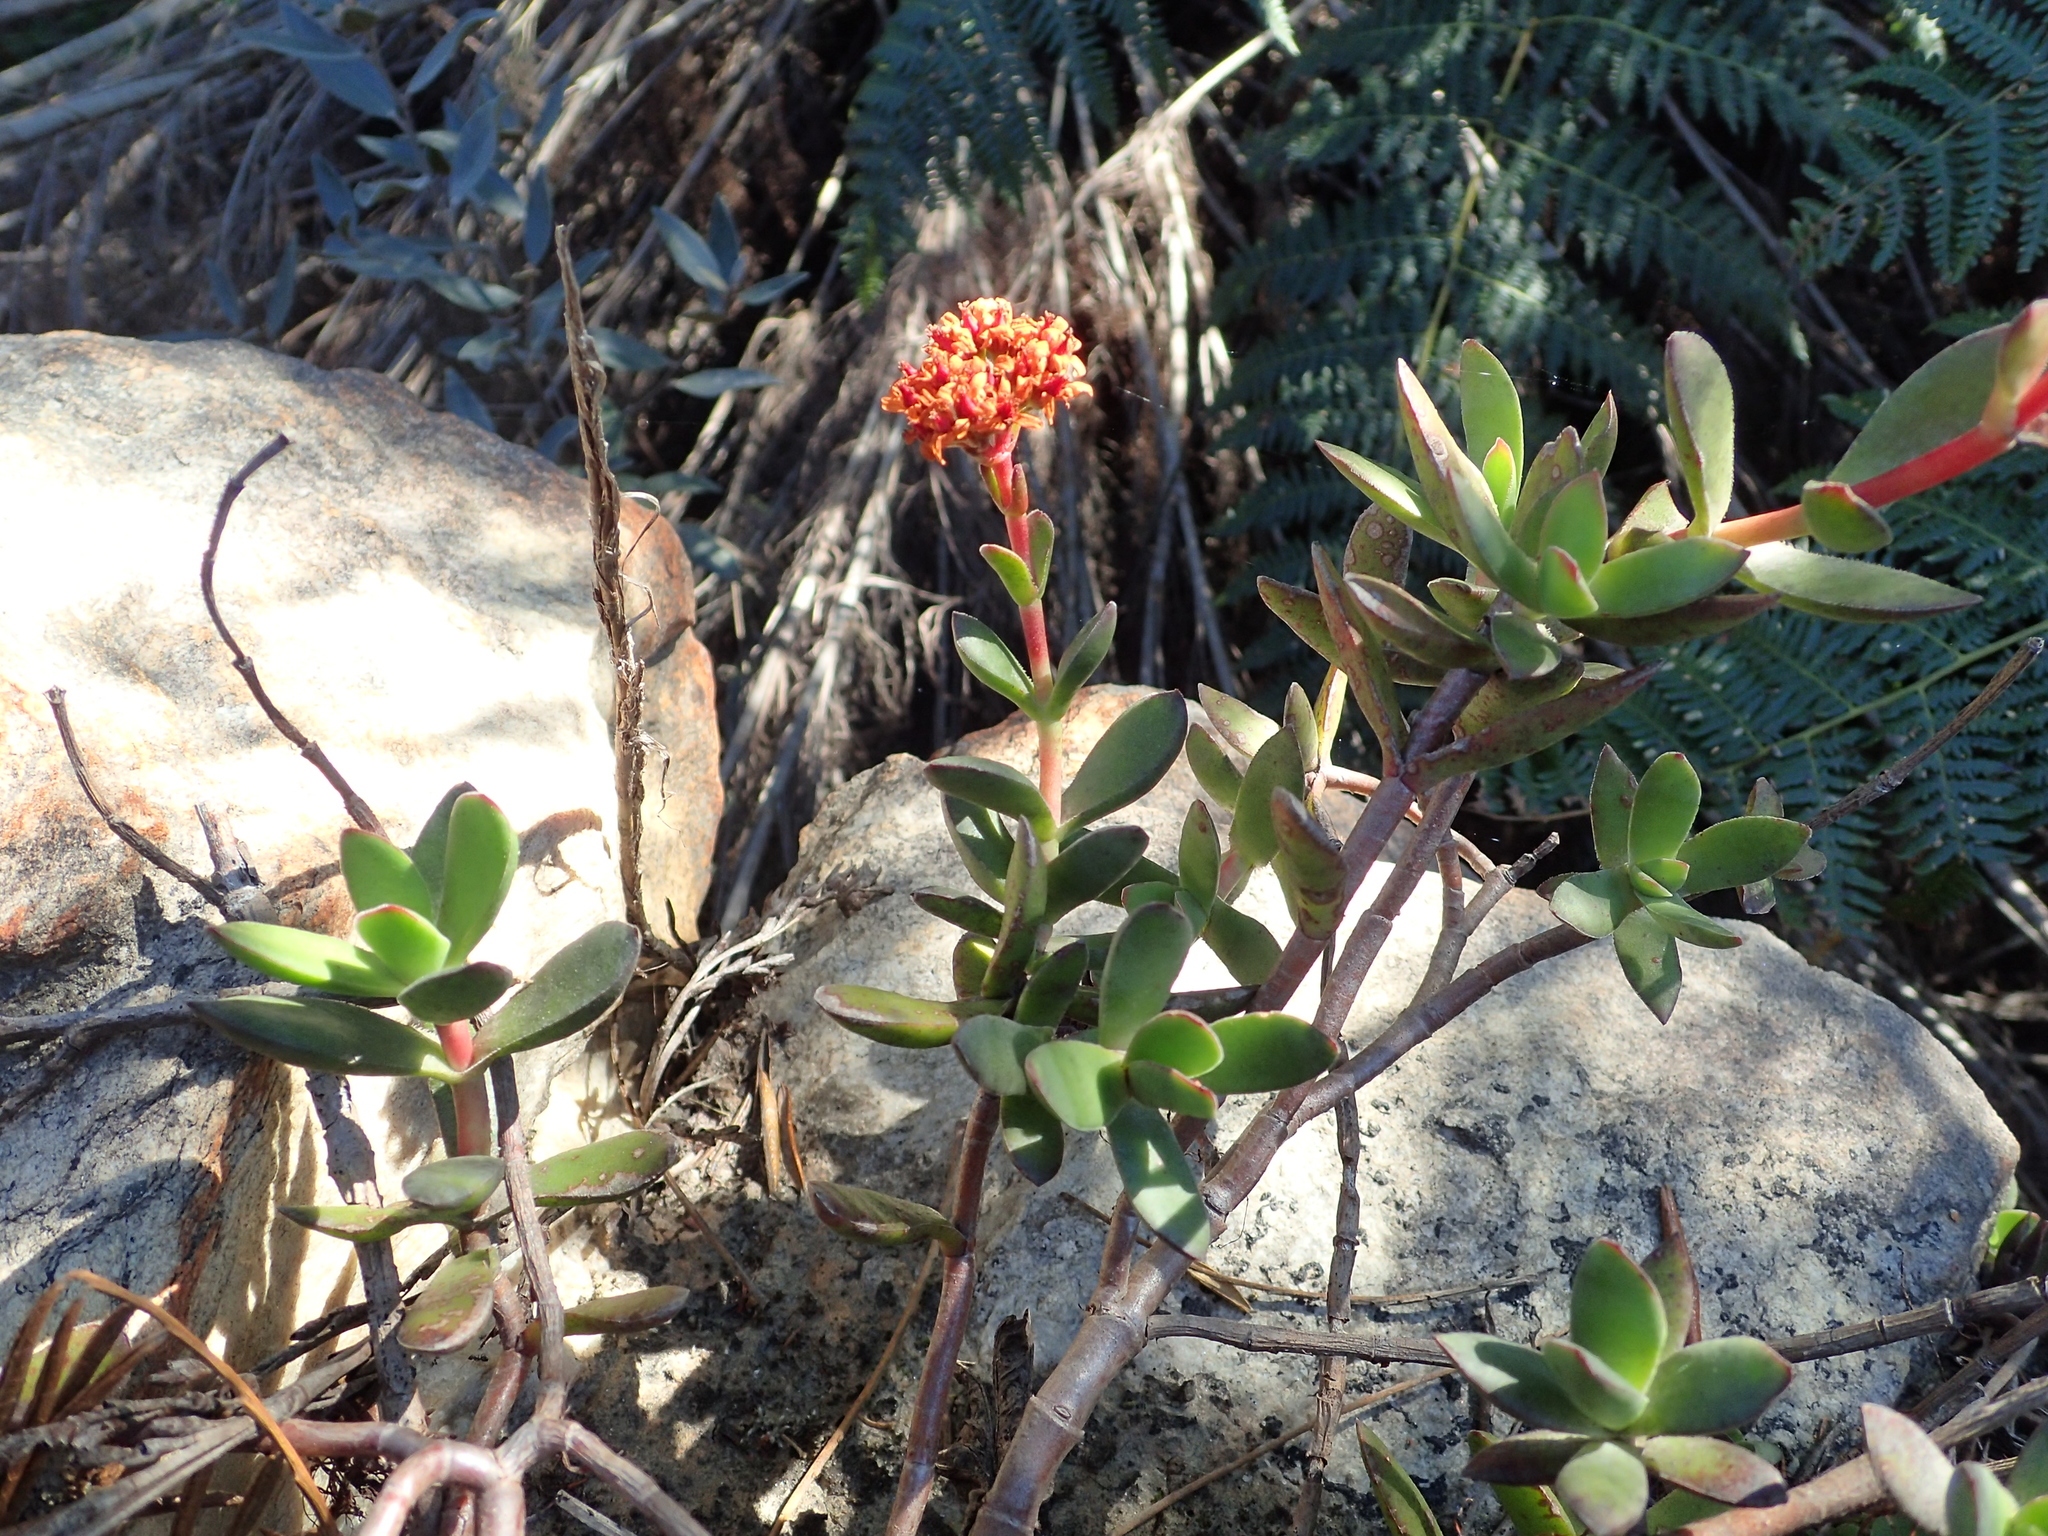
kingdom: Plantae
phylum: Tracheophyta
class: Magnoliopsida
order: Saxifragales
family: Crassulaceae
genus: Crassula
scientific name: Crassula rubricaulis
